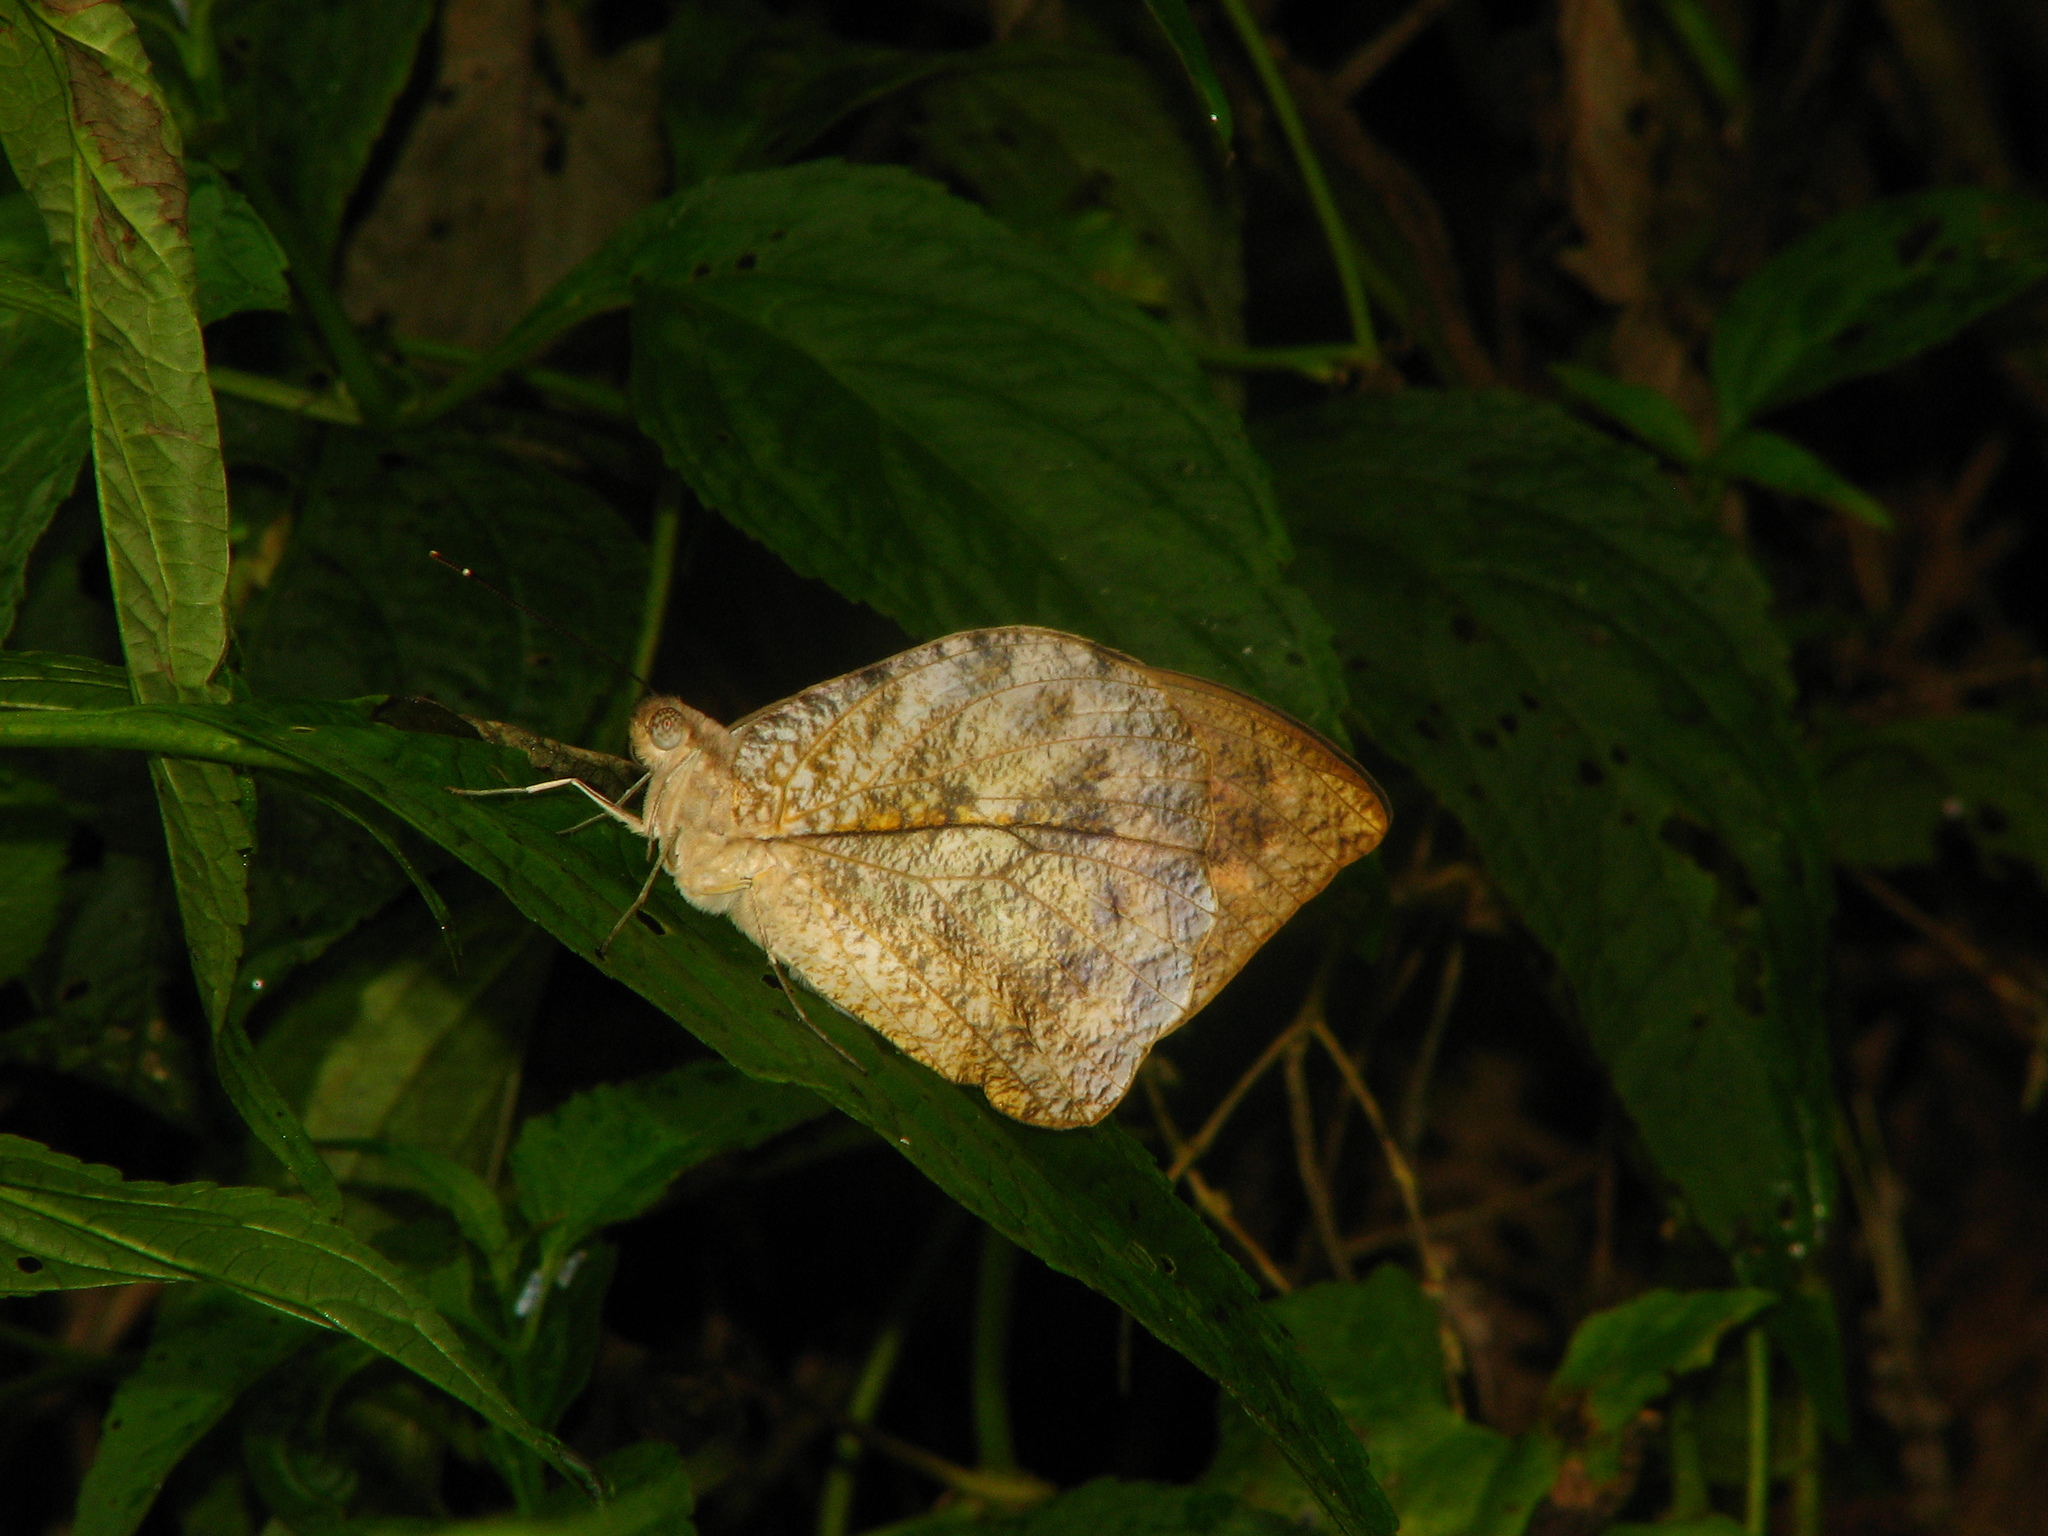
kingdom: Animalia
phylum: Arthropoda
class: Insecta
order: Lepidoptera
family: Pieridae
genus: Hebomoia
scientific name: Hebomoia glaucippe
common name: Great orange tip
